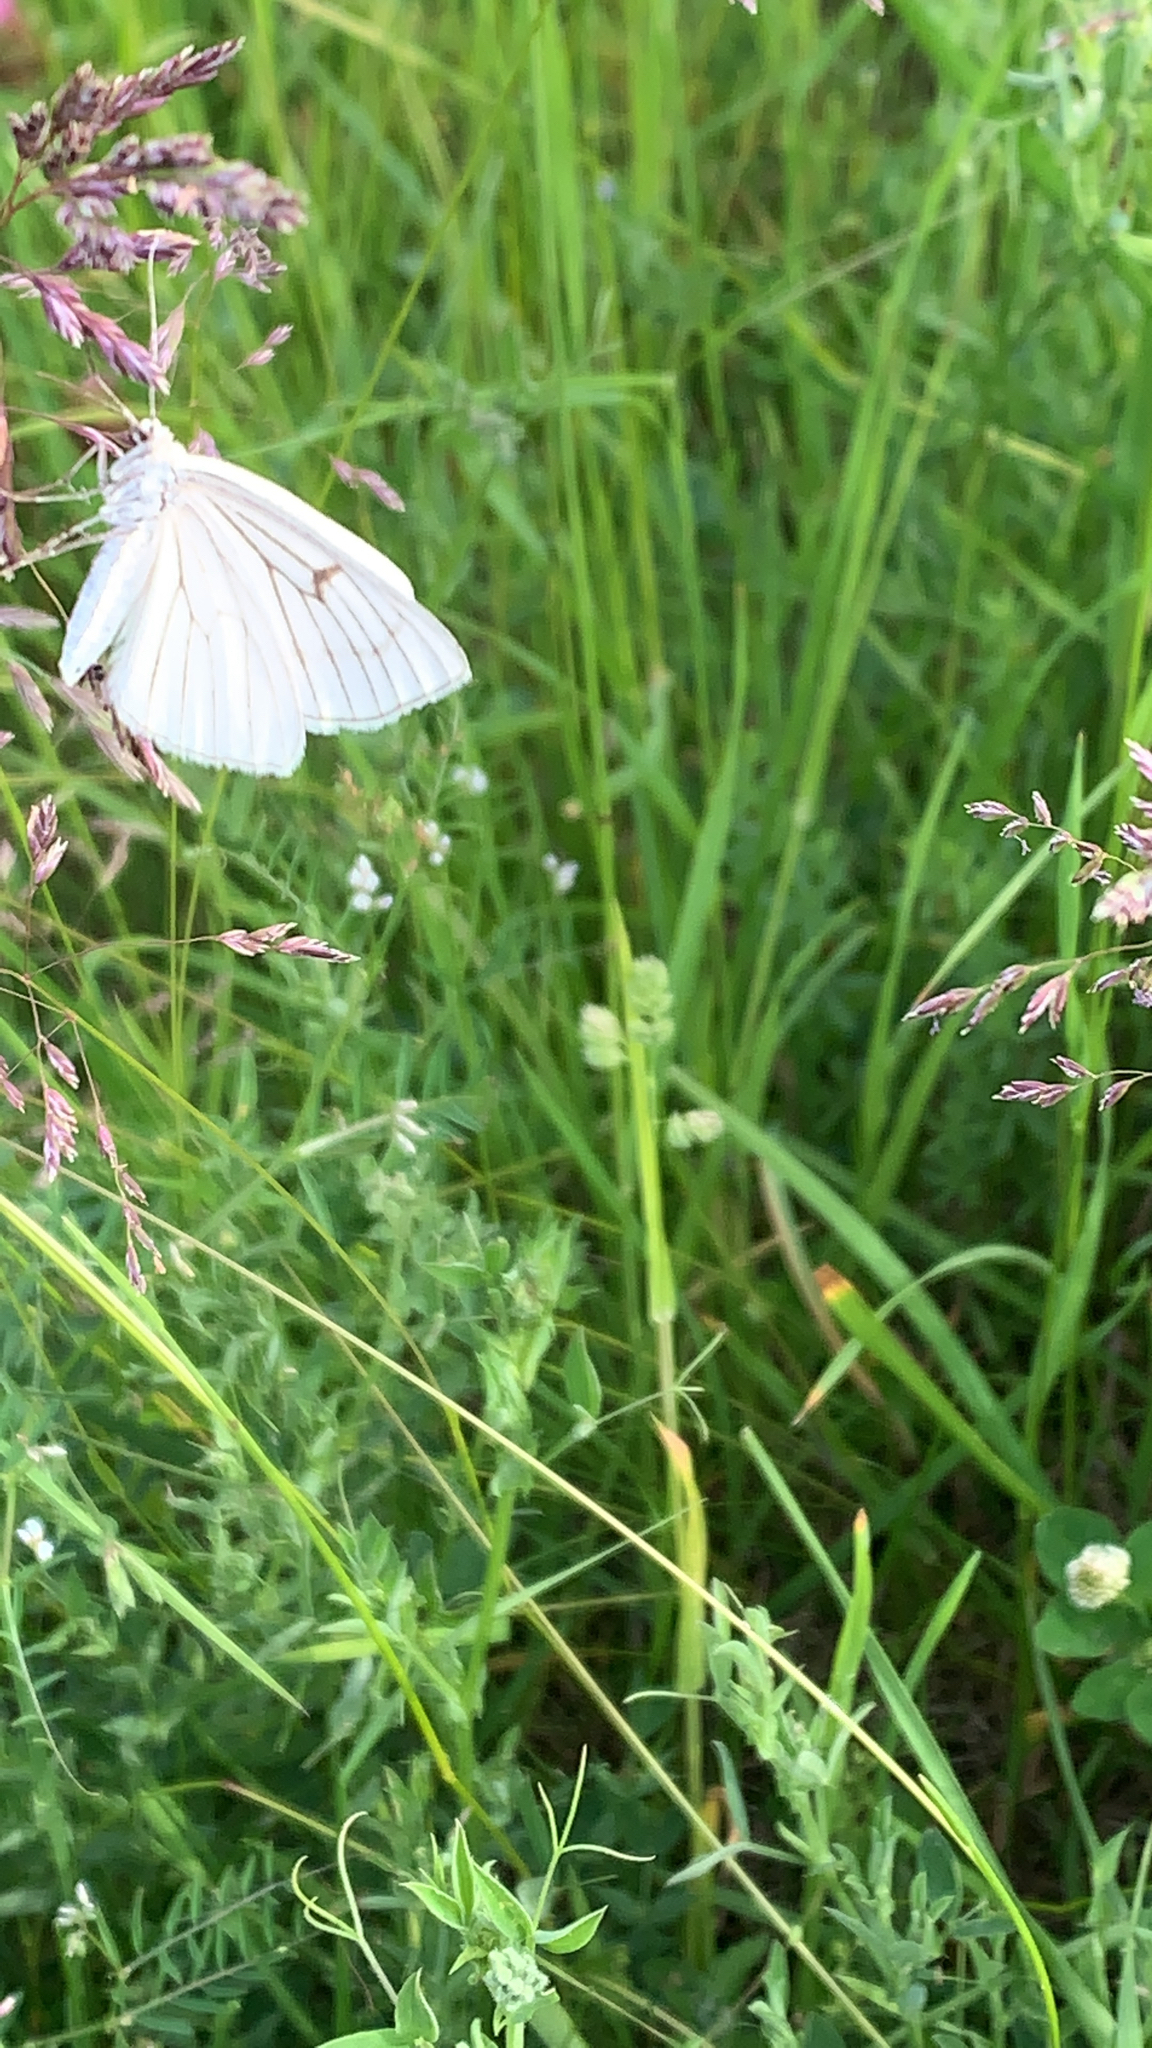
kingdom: Animalia
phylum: Arthropoda
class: Insecta
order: Lepidoptera
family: Geometridae
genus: Siona
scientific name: Siona lineata
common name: Black-veined moth
